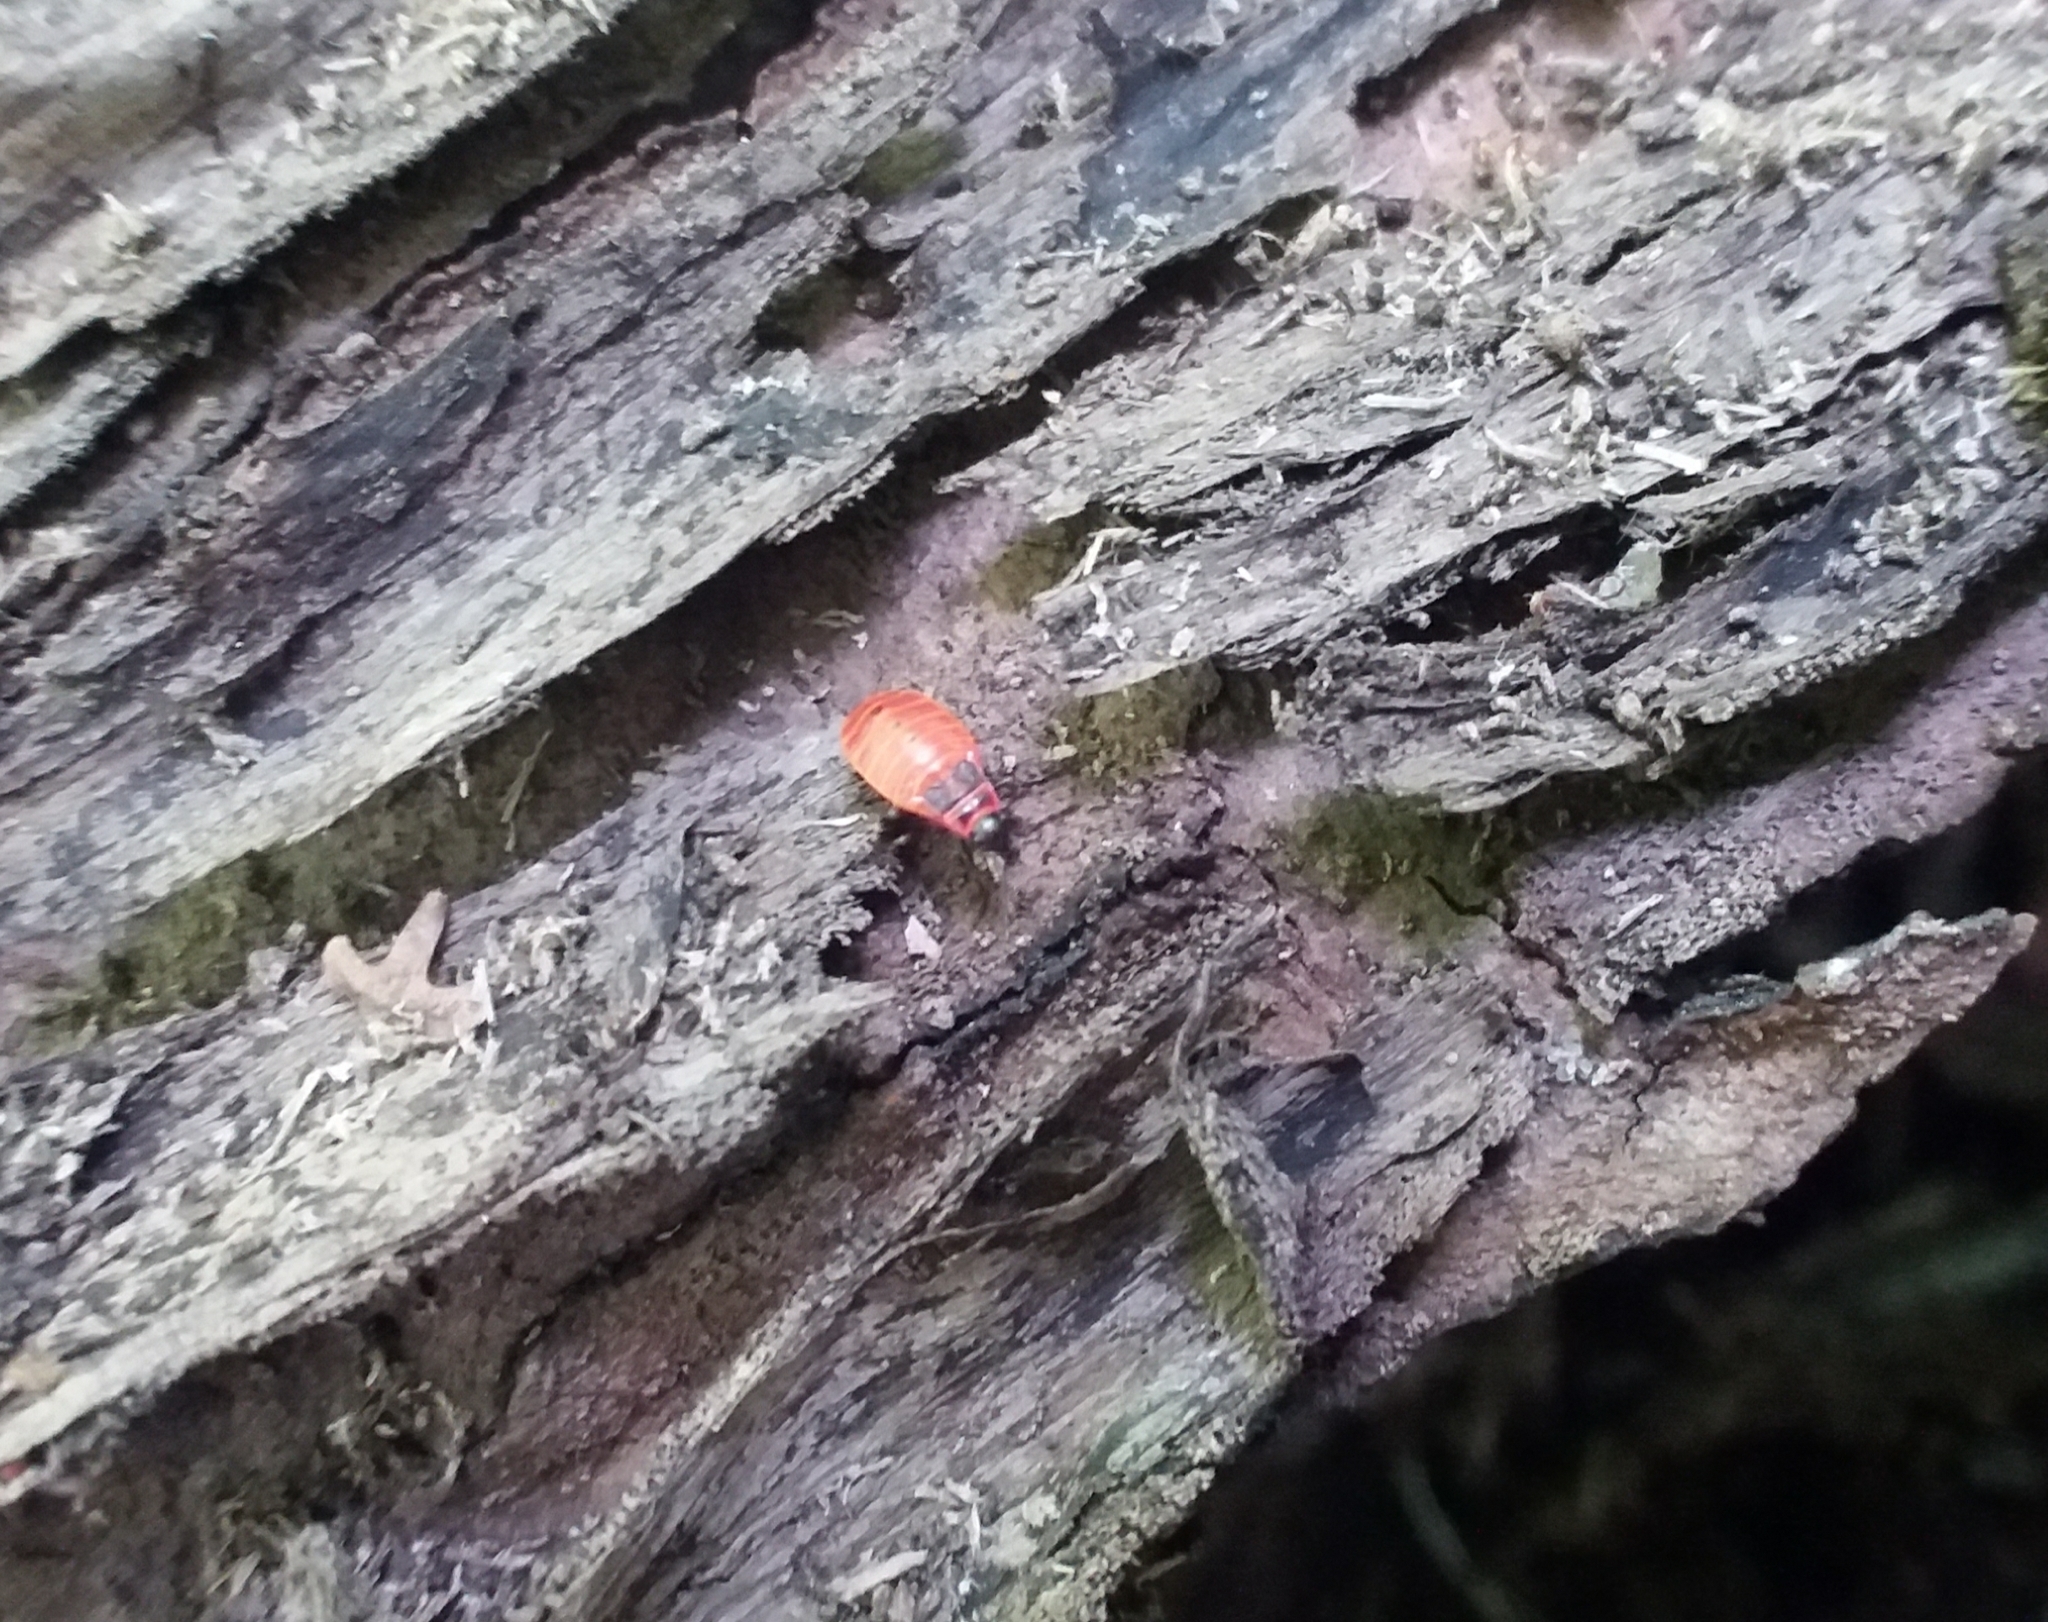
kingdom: Animalia
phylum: Arthropoda
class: Insecta
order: Hemiptera
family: Pyrrhocoridae
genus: Pyrrhocoris
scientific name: Pyrrhocoris apterus
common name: Firebug
